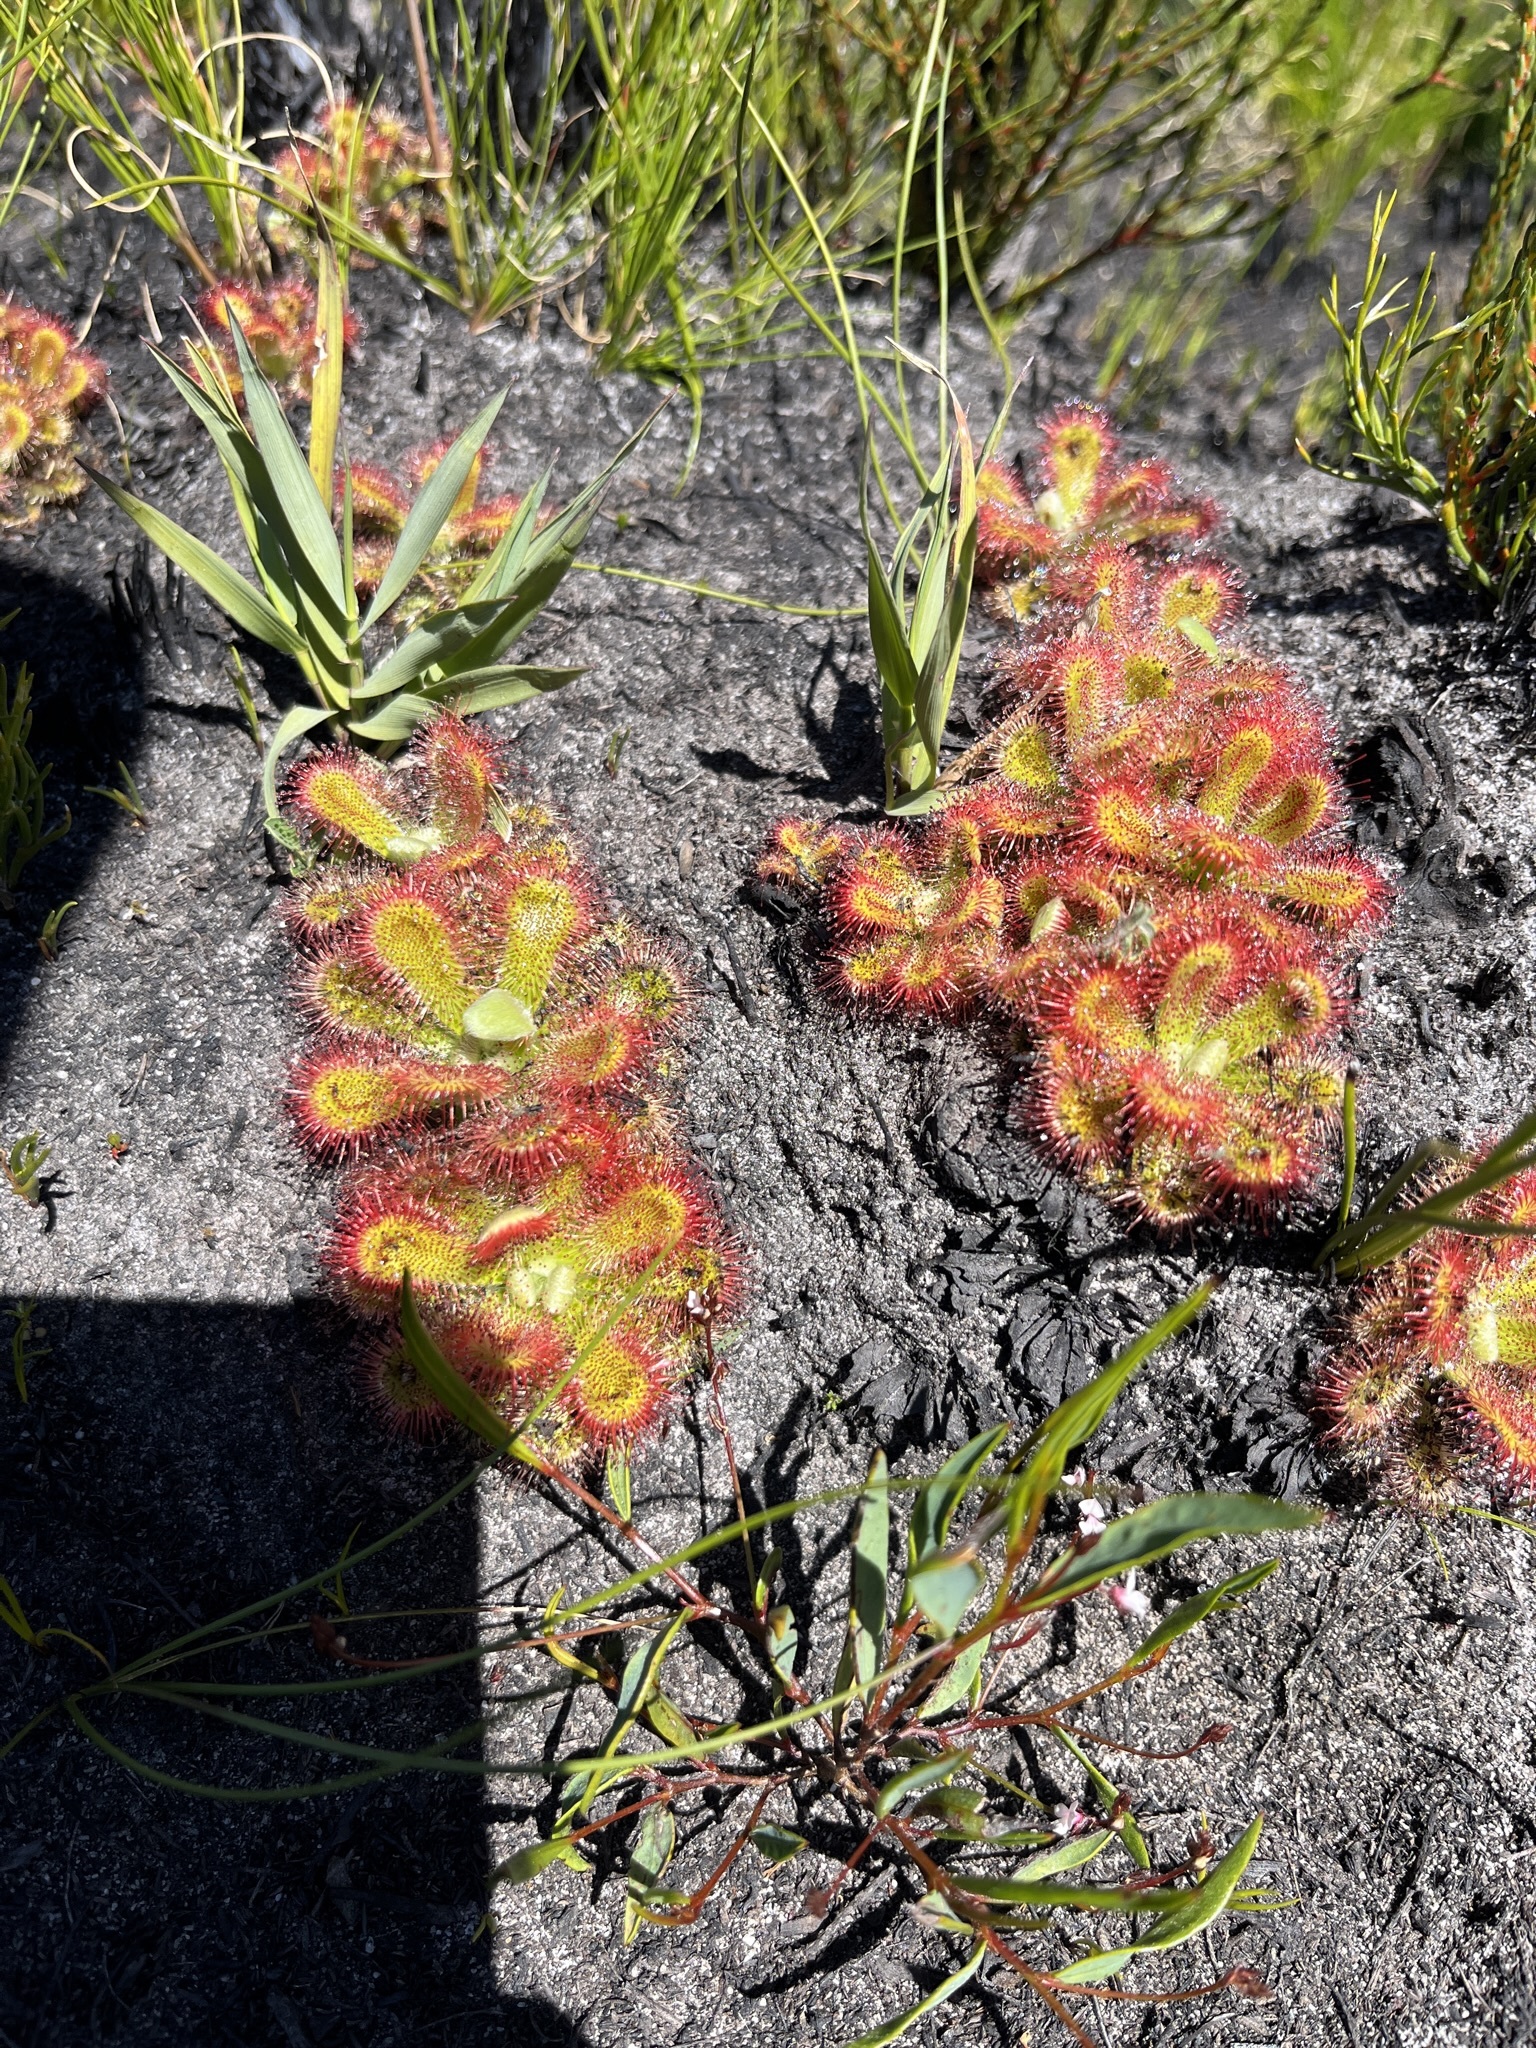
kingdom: Plantae
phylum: Tracheophyta
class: Magnoliopsida
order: Caryophyllales
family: Droseraceae
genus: Drosera
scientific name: Drosera aliciae
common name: Alice sundew
